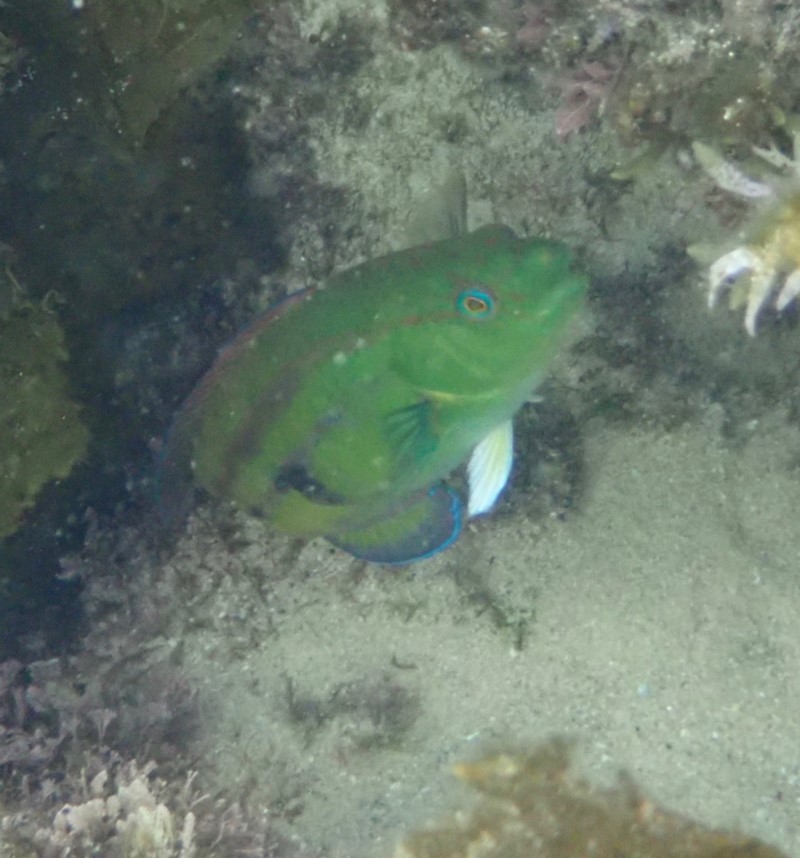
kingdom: Animalia
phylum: Chordata
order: Perciformes
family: Labridae
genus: Pictilabrus
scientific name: Pictilabrus laticlavius
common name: Patrician wrasse
